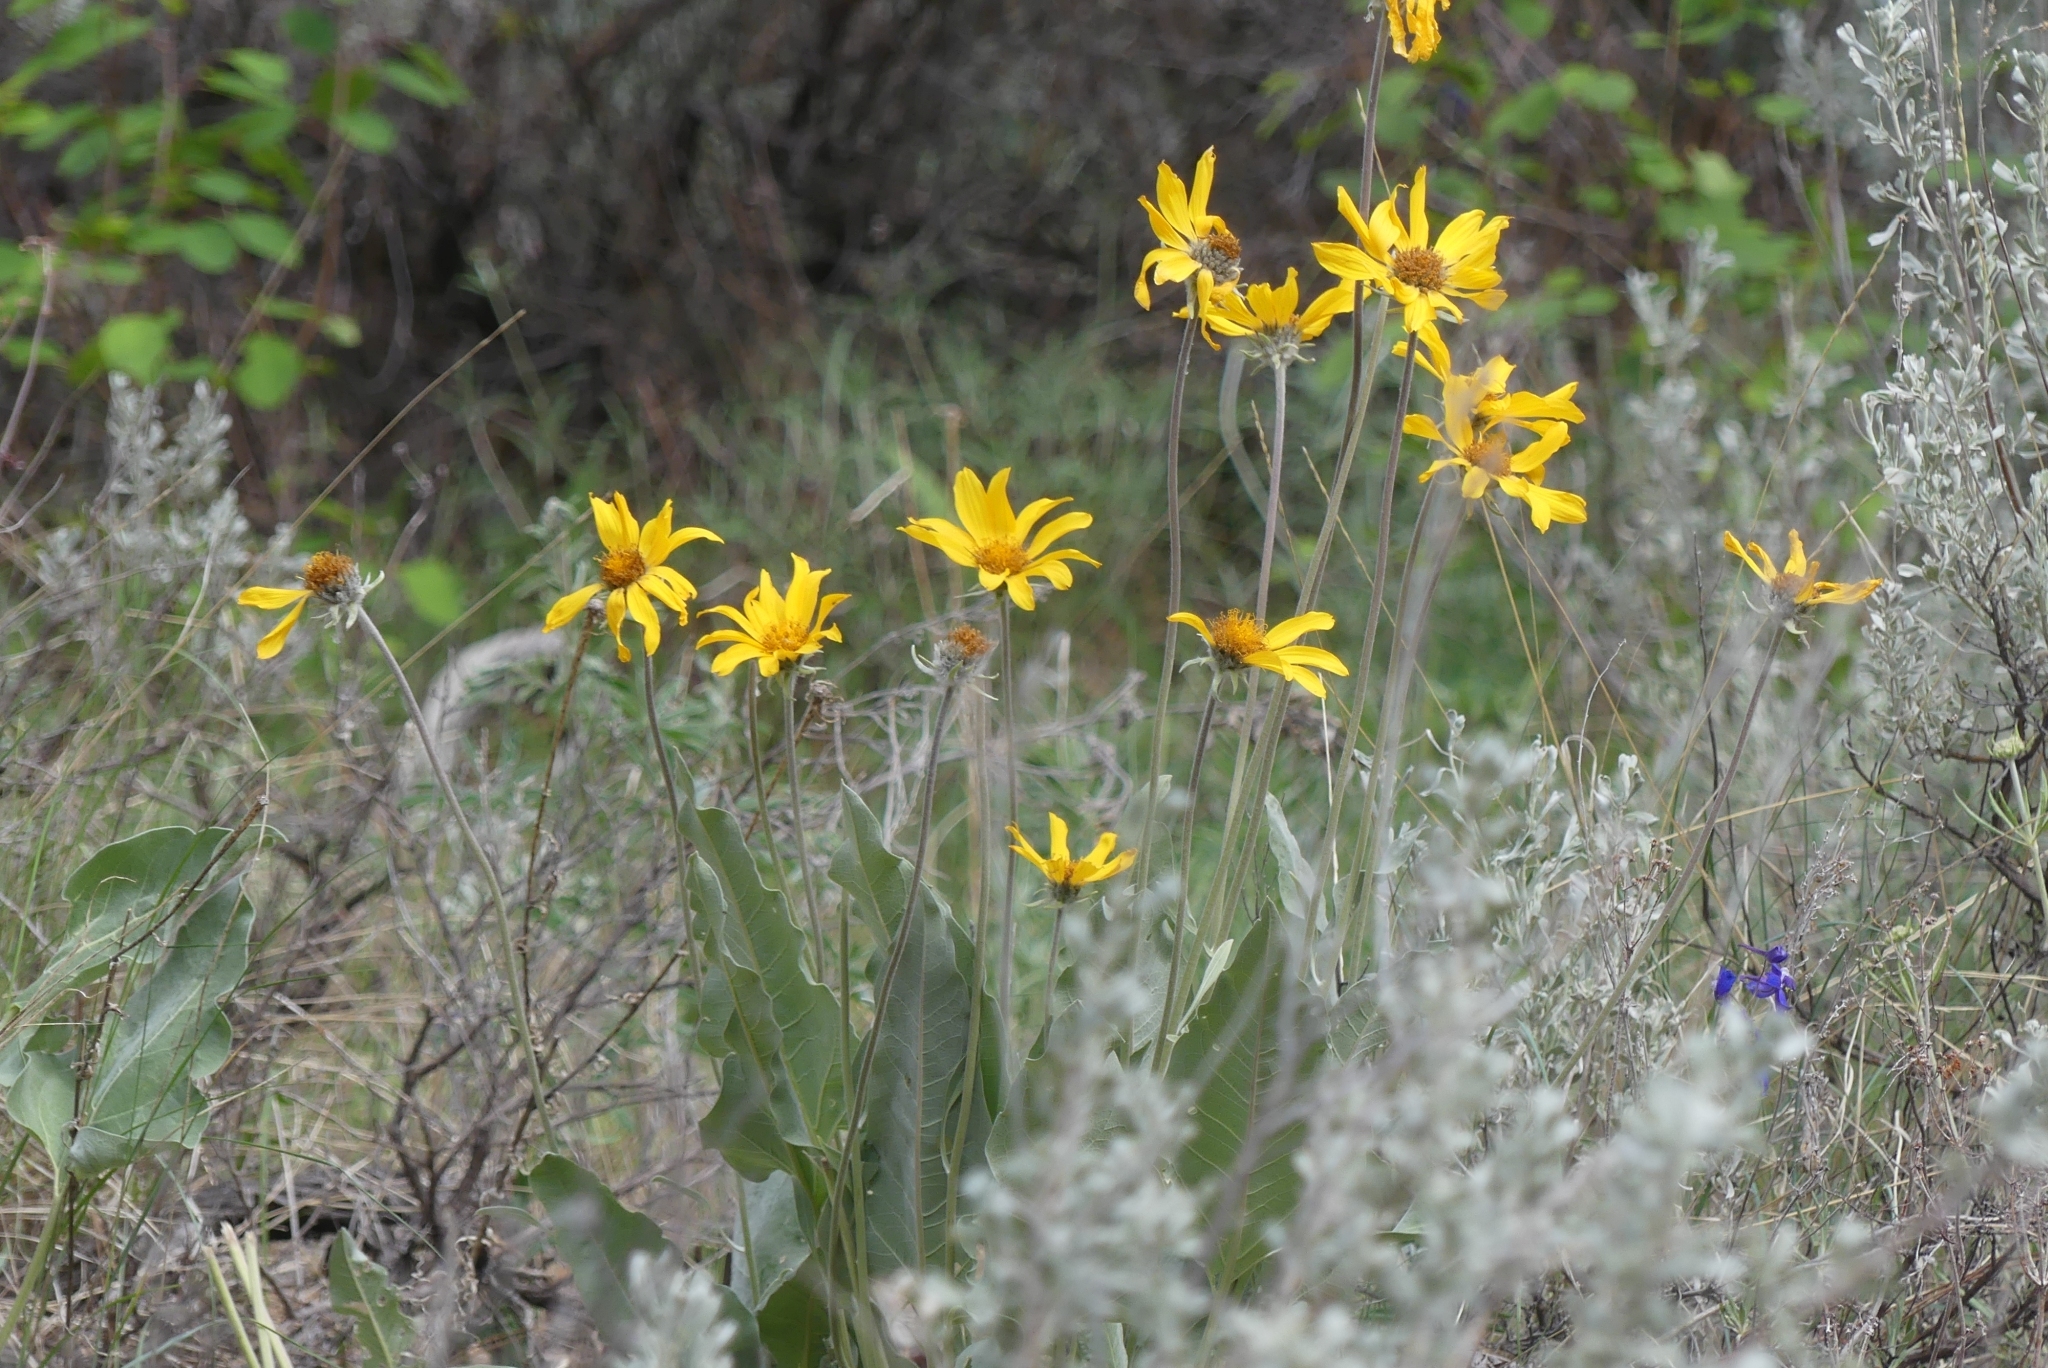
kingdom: Plantae
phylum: Tracheophyta
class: Magnoliopsida
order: Asterales
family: Asteraceae
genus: Wyethia
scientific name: Wyethia sagittata
